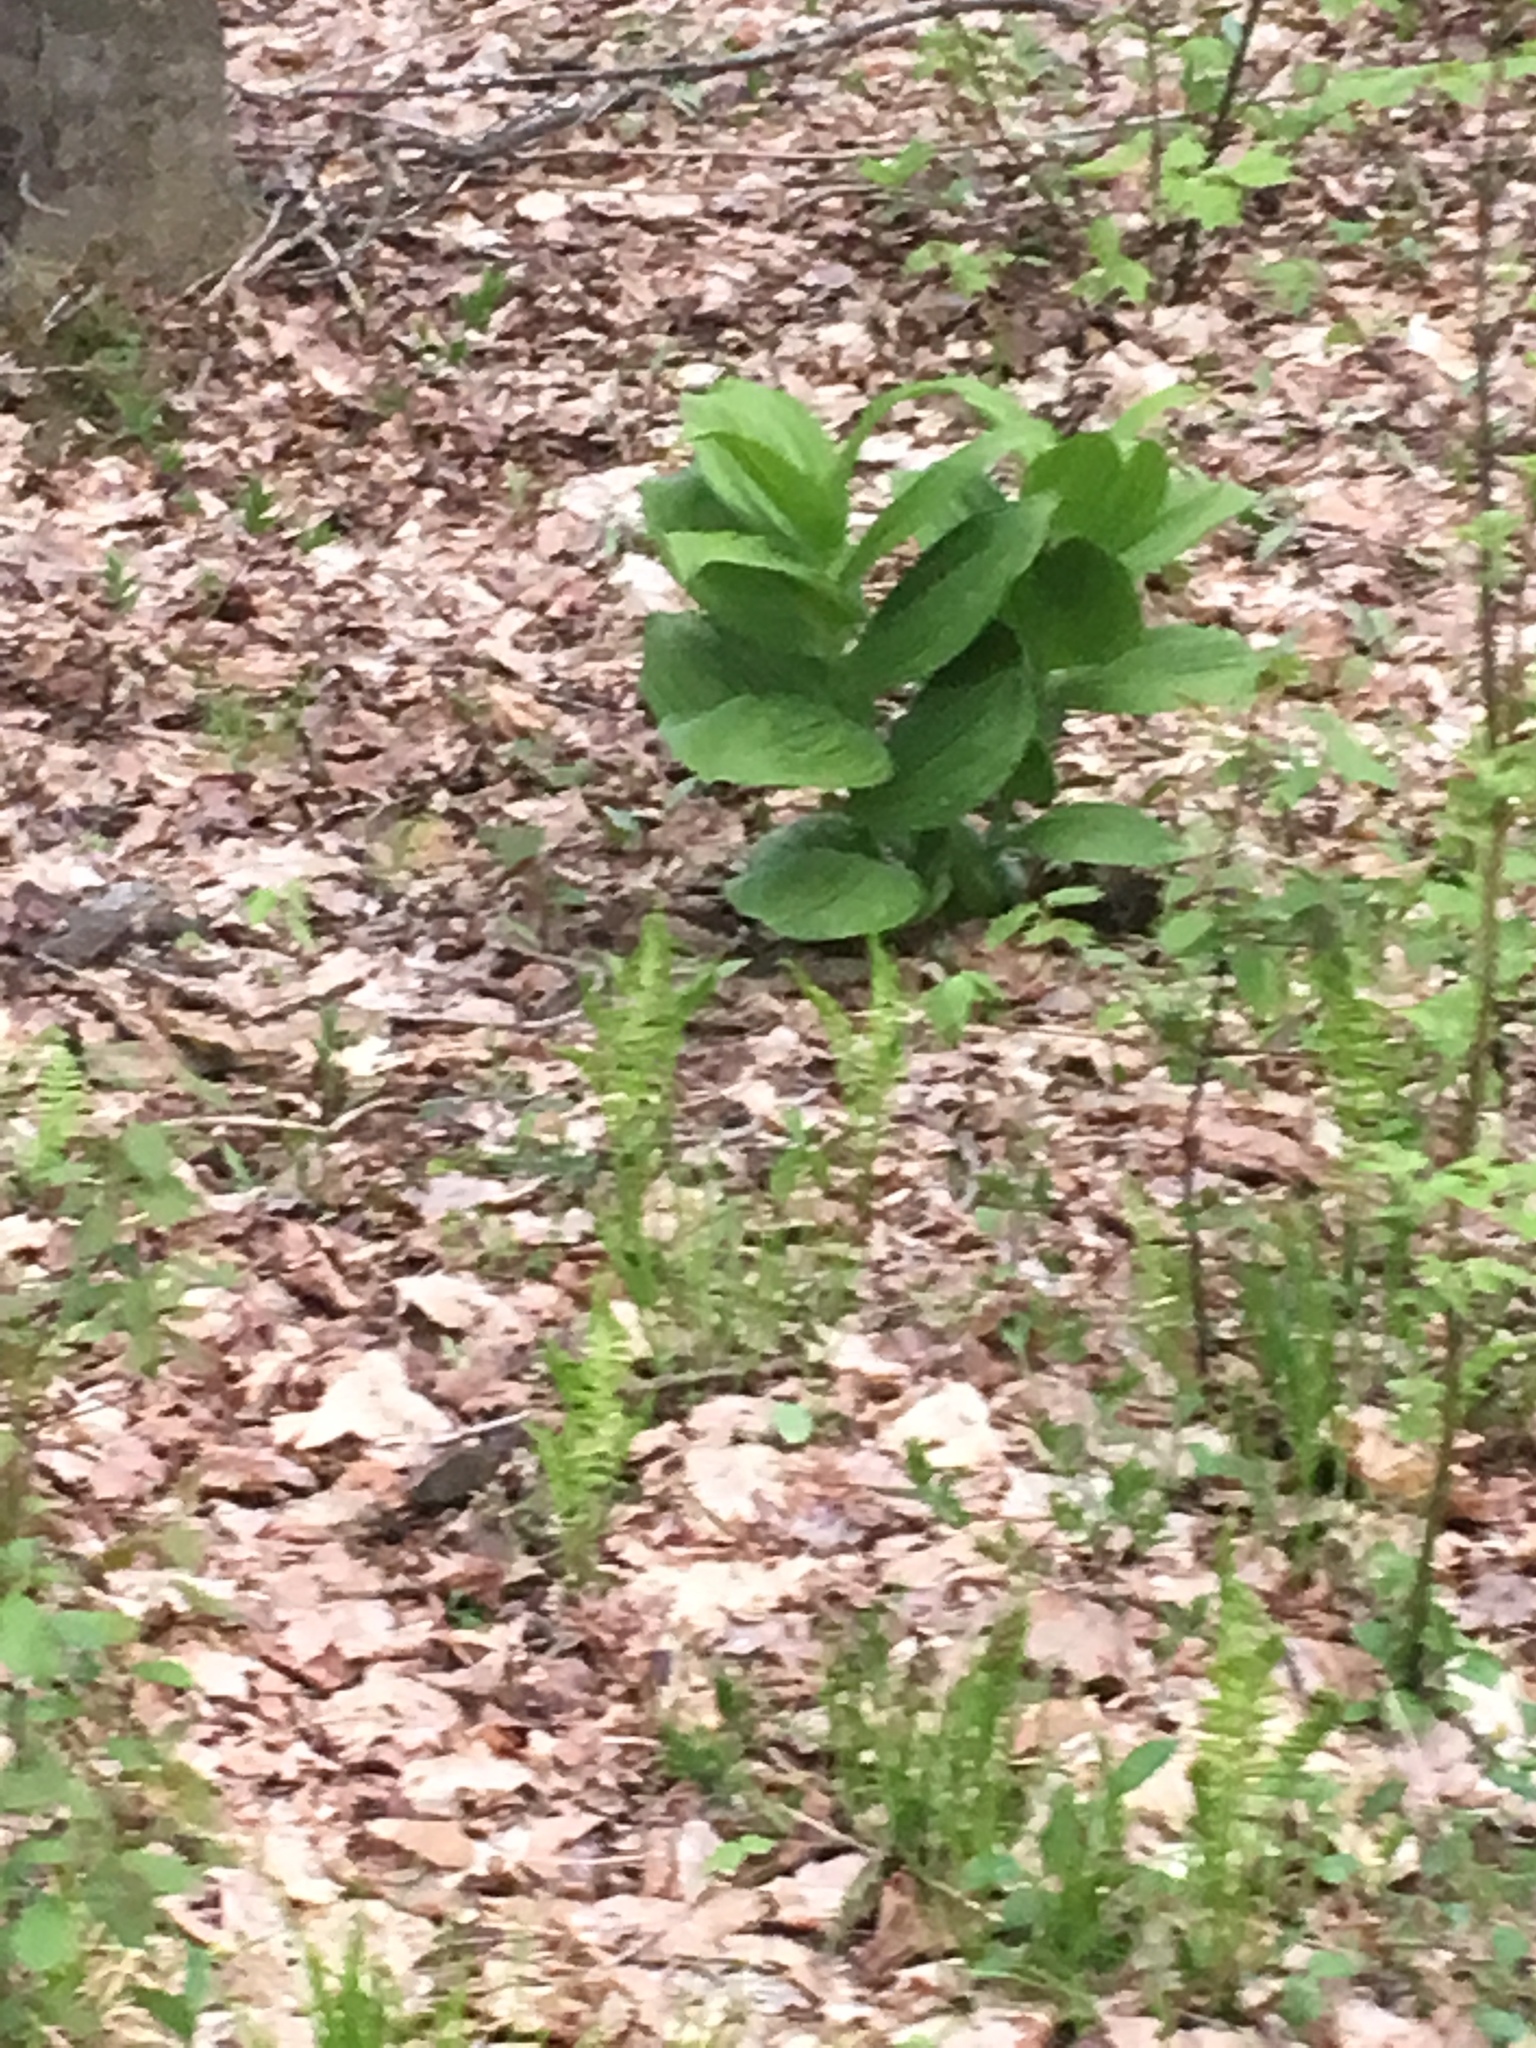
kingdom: Plantae
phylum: Tracheophyta
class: Liliopsida
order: Liliales
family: Melanthiaceae
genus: Veratrum
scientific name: Veratrum viride
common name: American false hellebore
